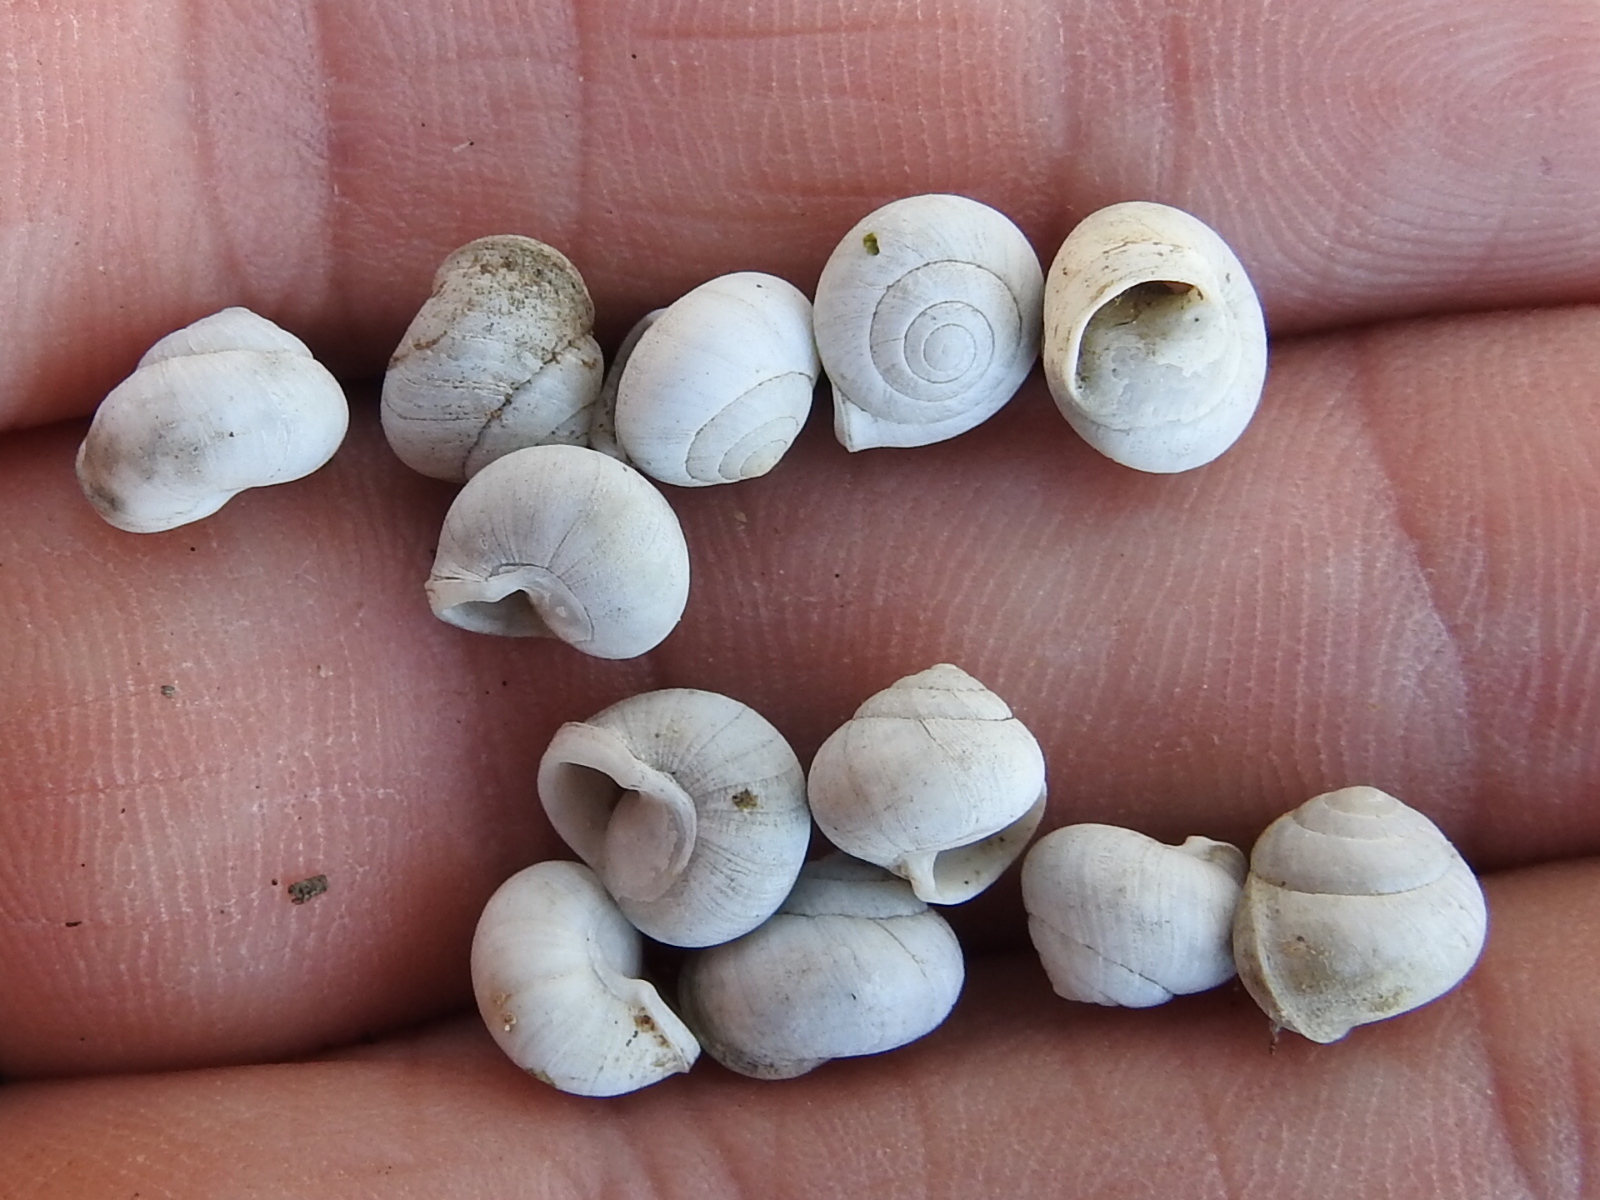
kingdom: Animalia
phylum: Mollusca
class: Gastropoda
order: Cycloneritida
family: Helicinidae
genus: Helicina
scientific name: Helicina orbiculata
